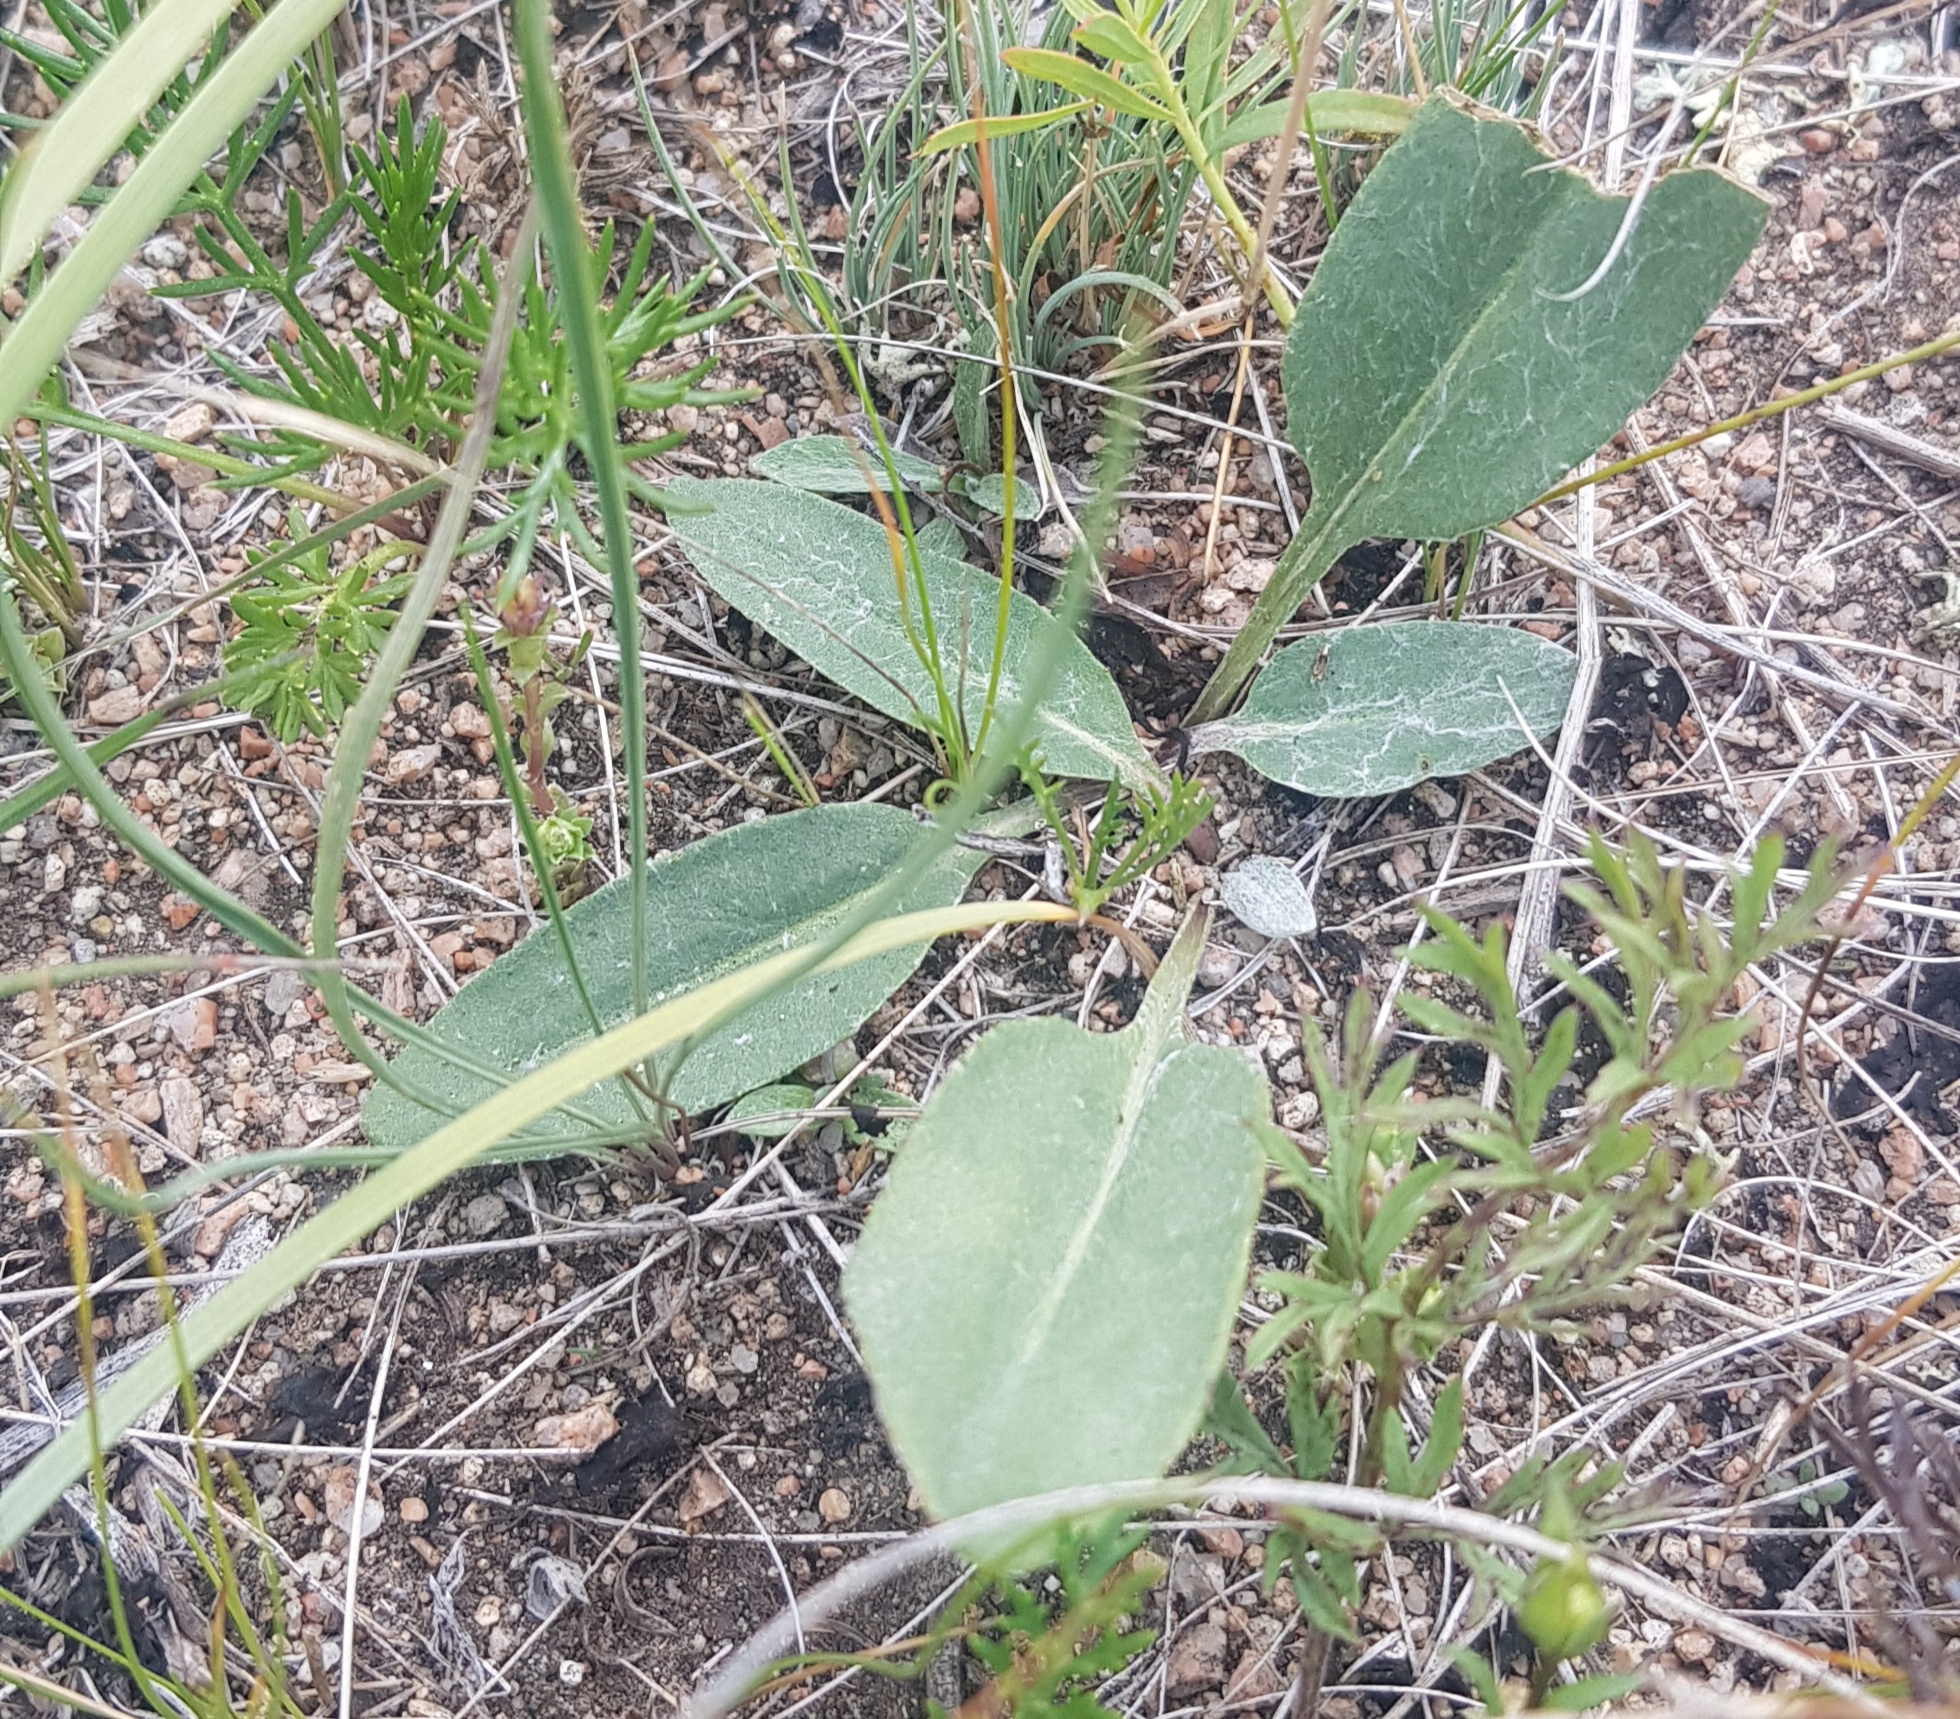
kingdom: Plantae
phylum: Tracheophyta
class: Magnoliopsida
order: Asterales
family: Asteraceae
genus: Senecio
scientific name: Senecio integerrimus
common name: Gaugeplant
